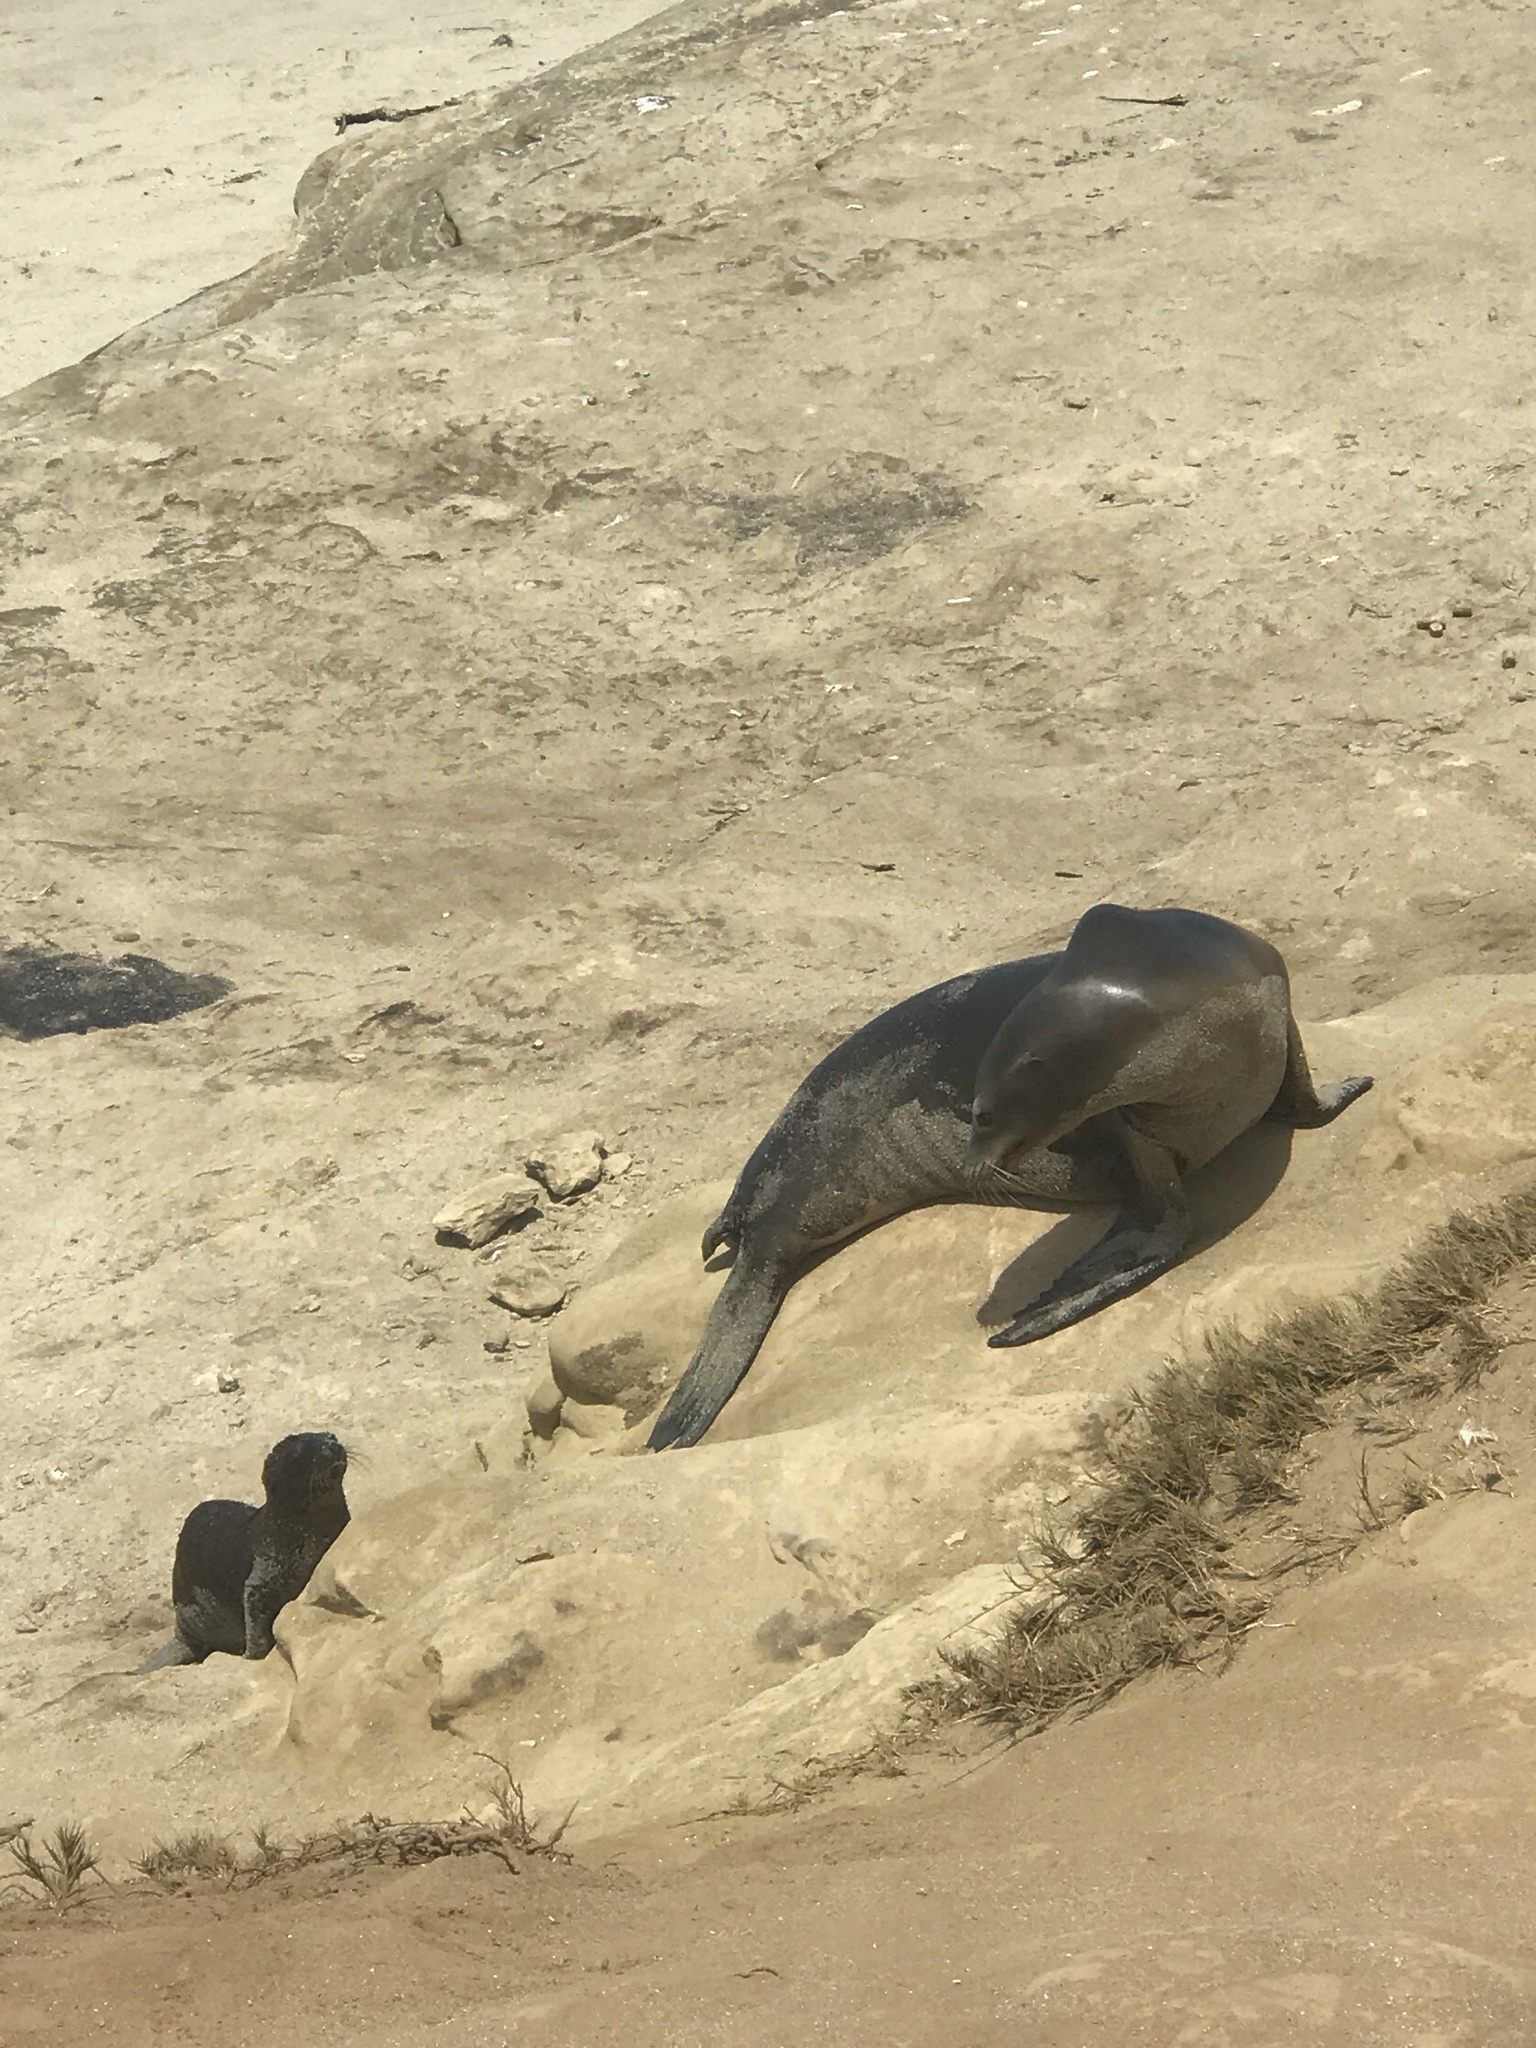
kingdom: Animalia
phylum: Chordata
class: Mammalia
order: Carnivora
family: Otariidae
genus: Zalophus
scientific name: Zalophus californianus
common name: California sea lion
